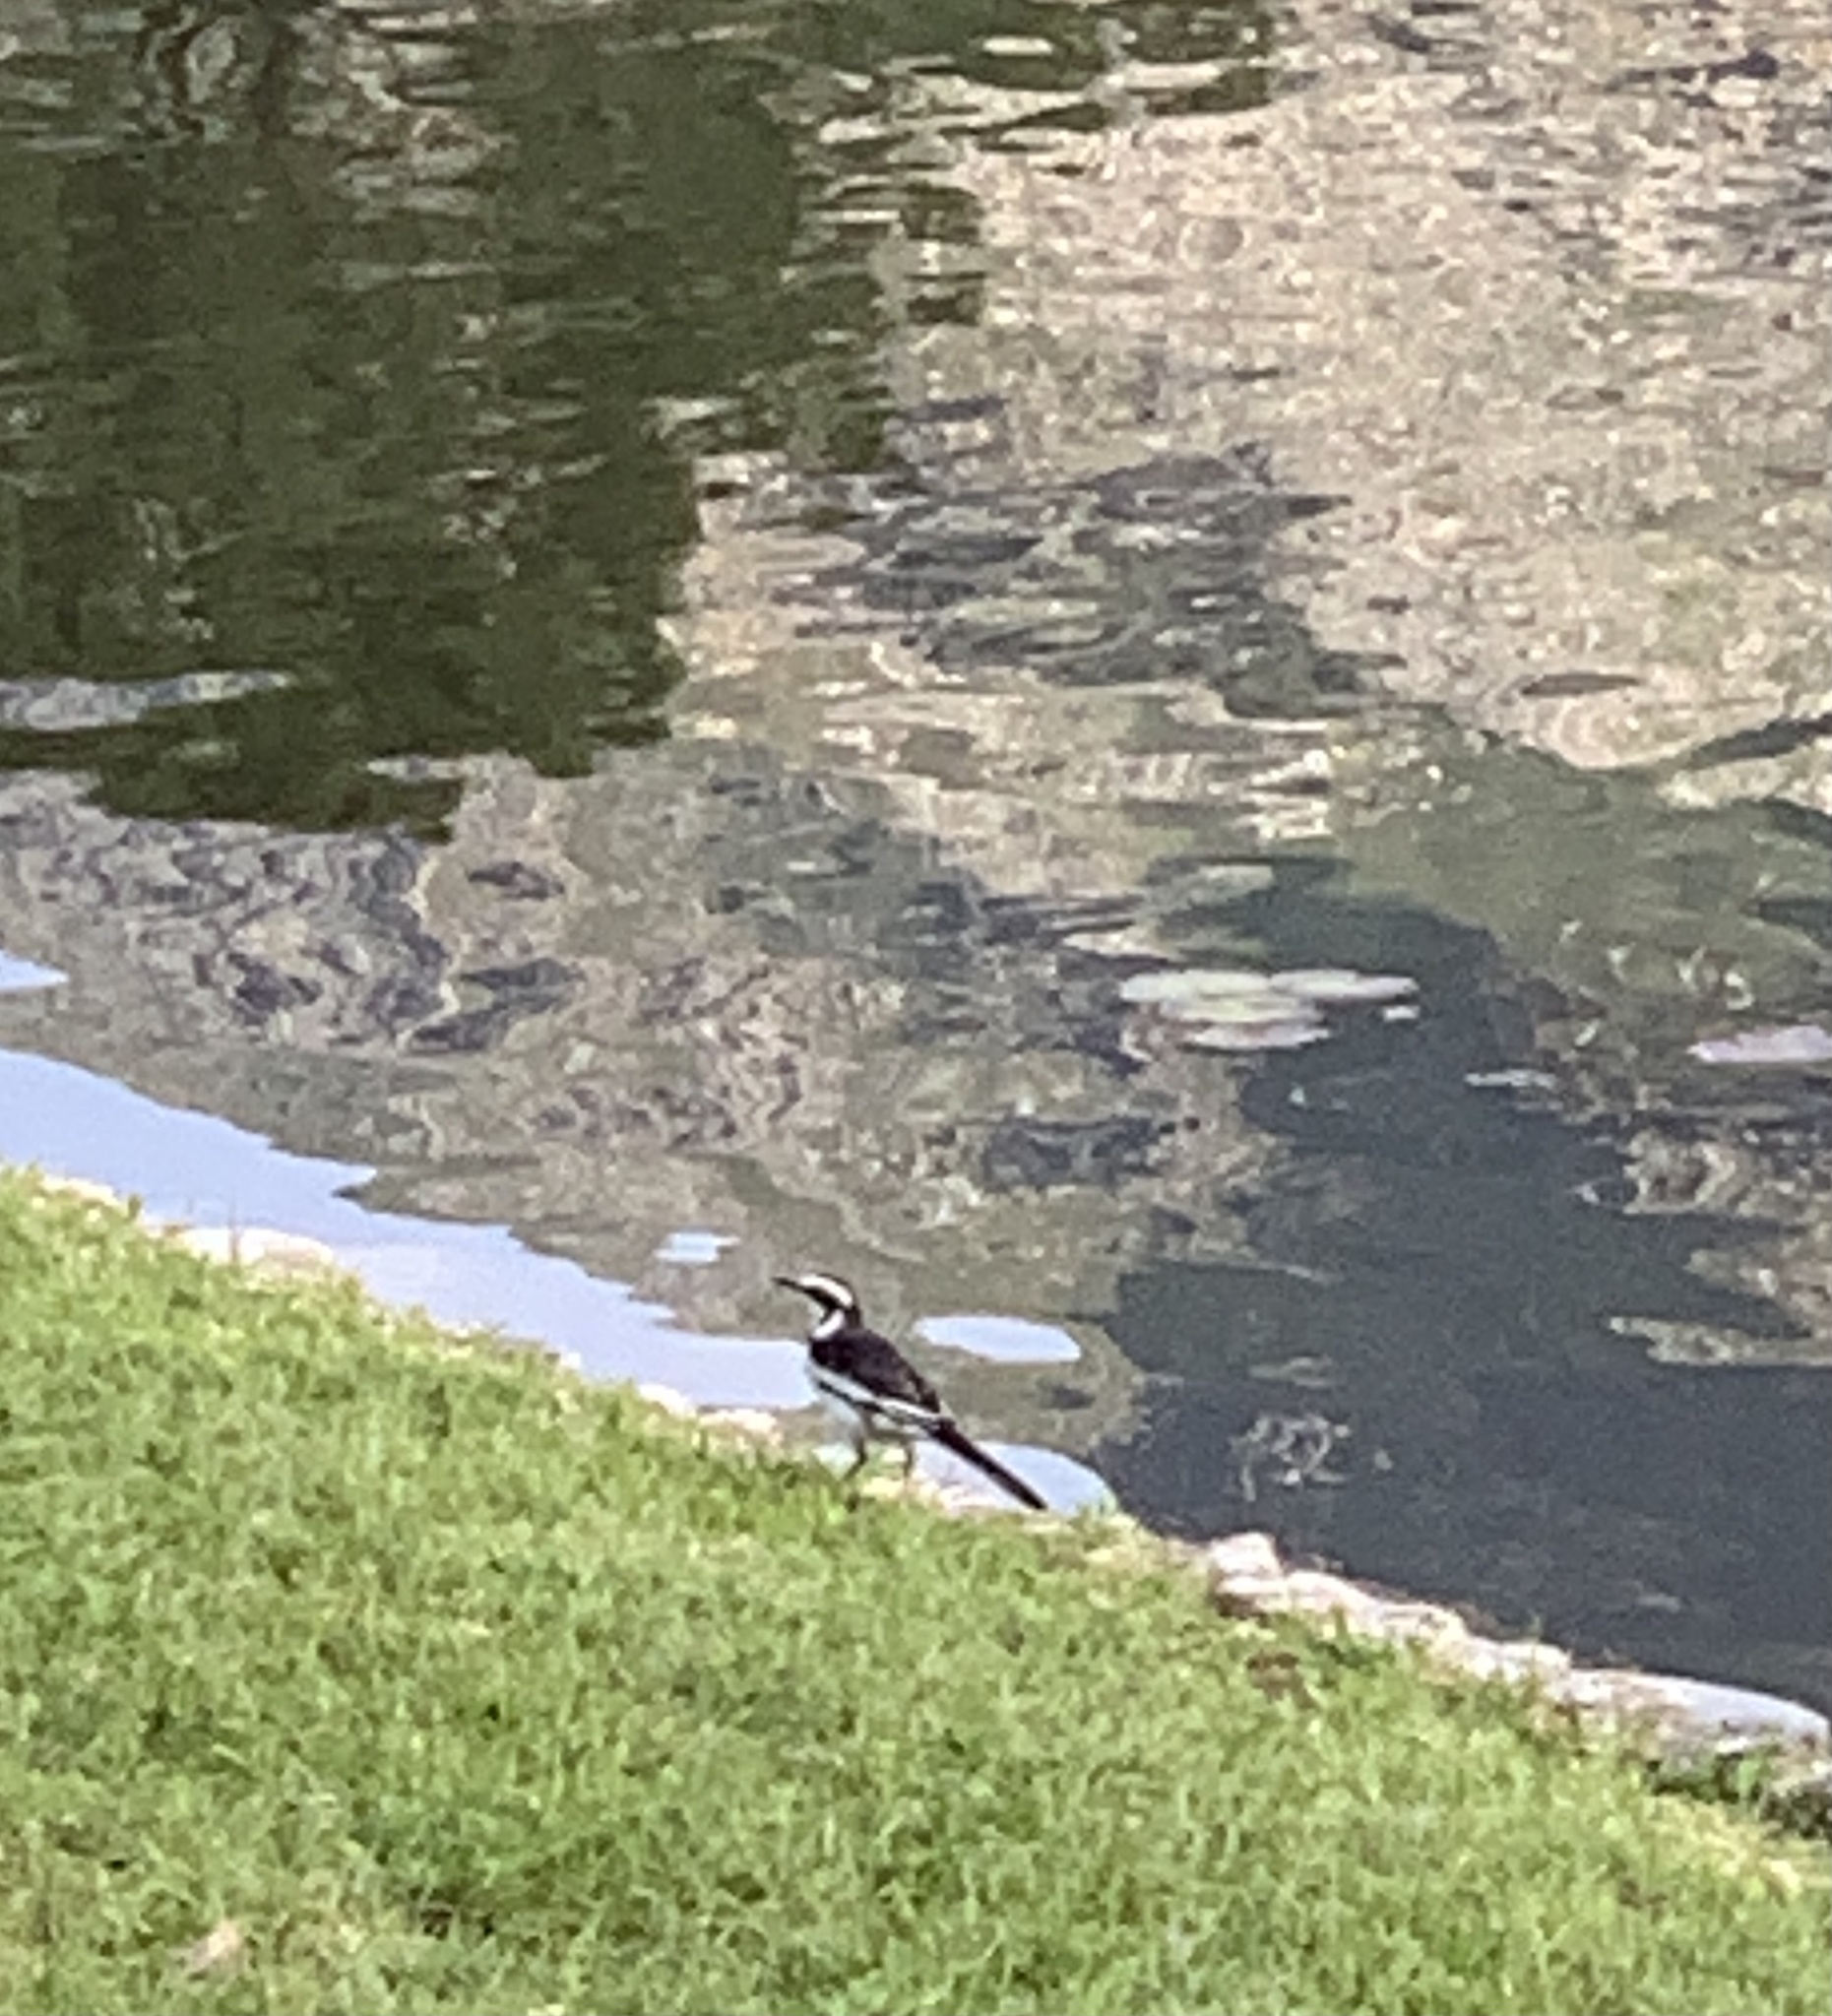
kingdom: Animalia
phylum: Chordata
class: Aves
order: Passeriformes
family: Motacillidae
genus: Motacilla
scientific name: Motacilla aguimp
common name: African pied wagtail
